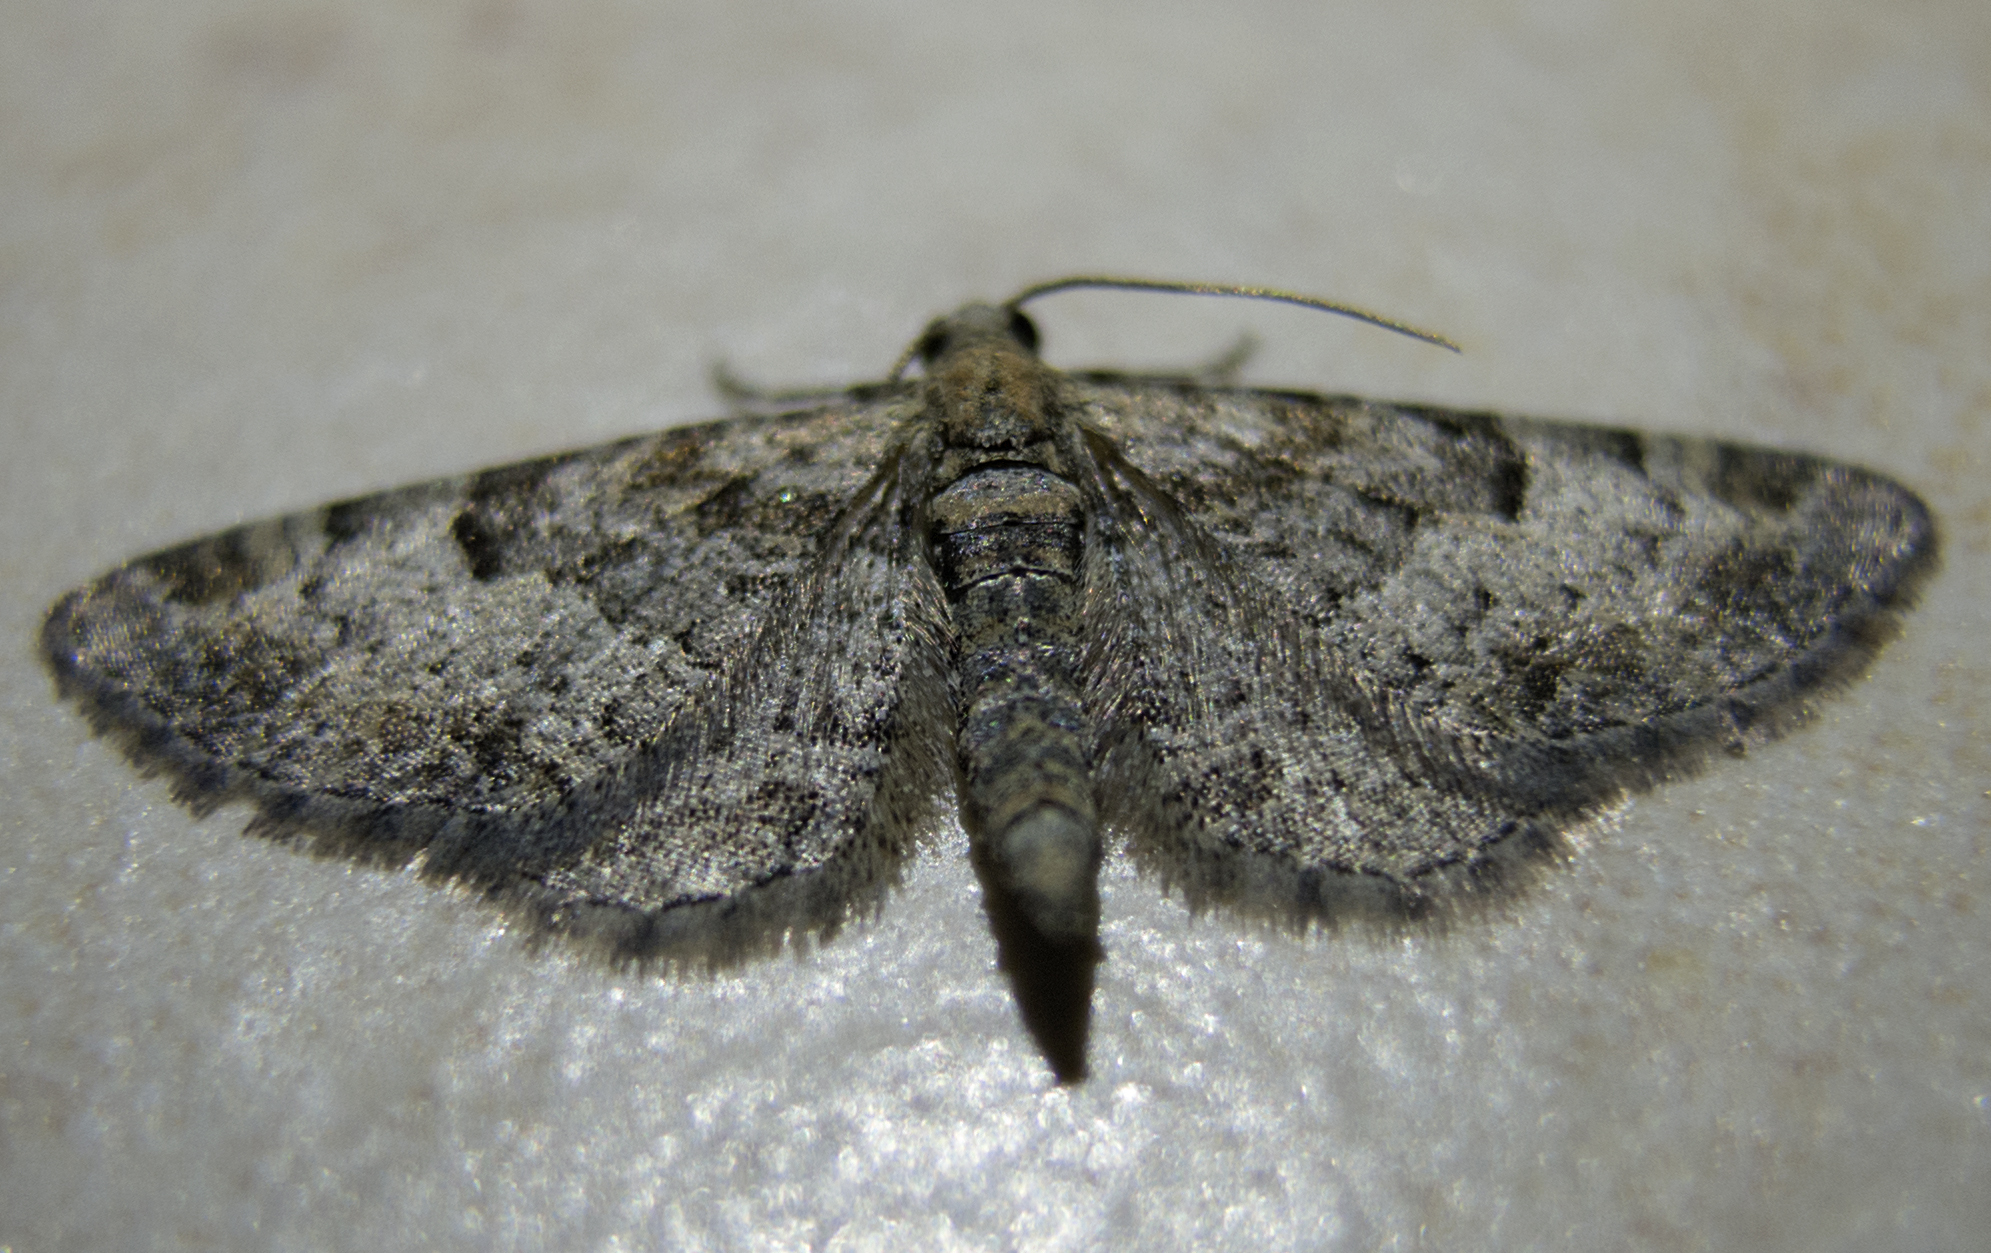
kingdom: Animalia
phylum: Arthropoda
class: Insecta
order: Lepidoptera
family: Geometridae
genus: Eupithecia
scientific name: Eupithecia irriguata
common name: Marbled pug
